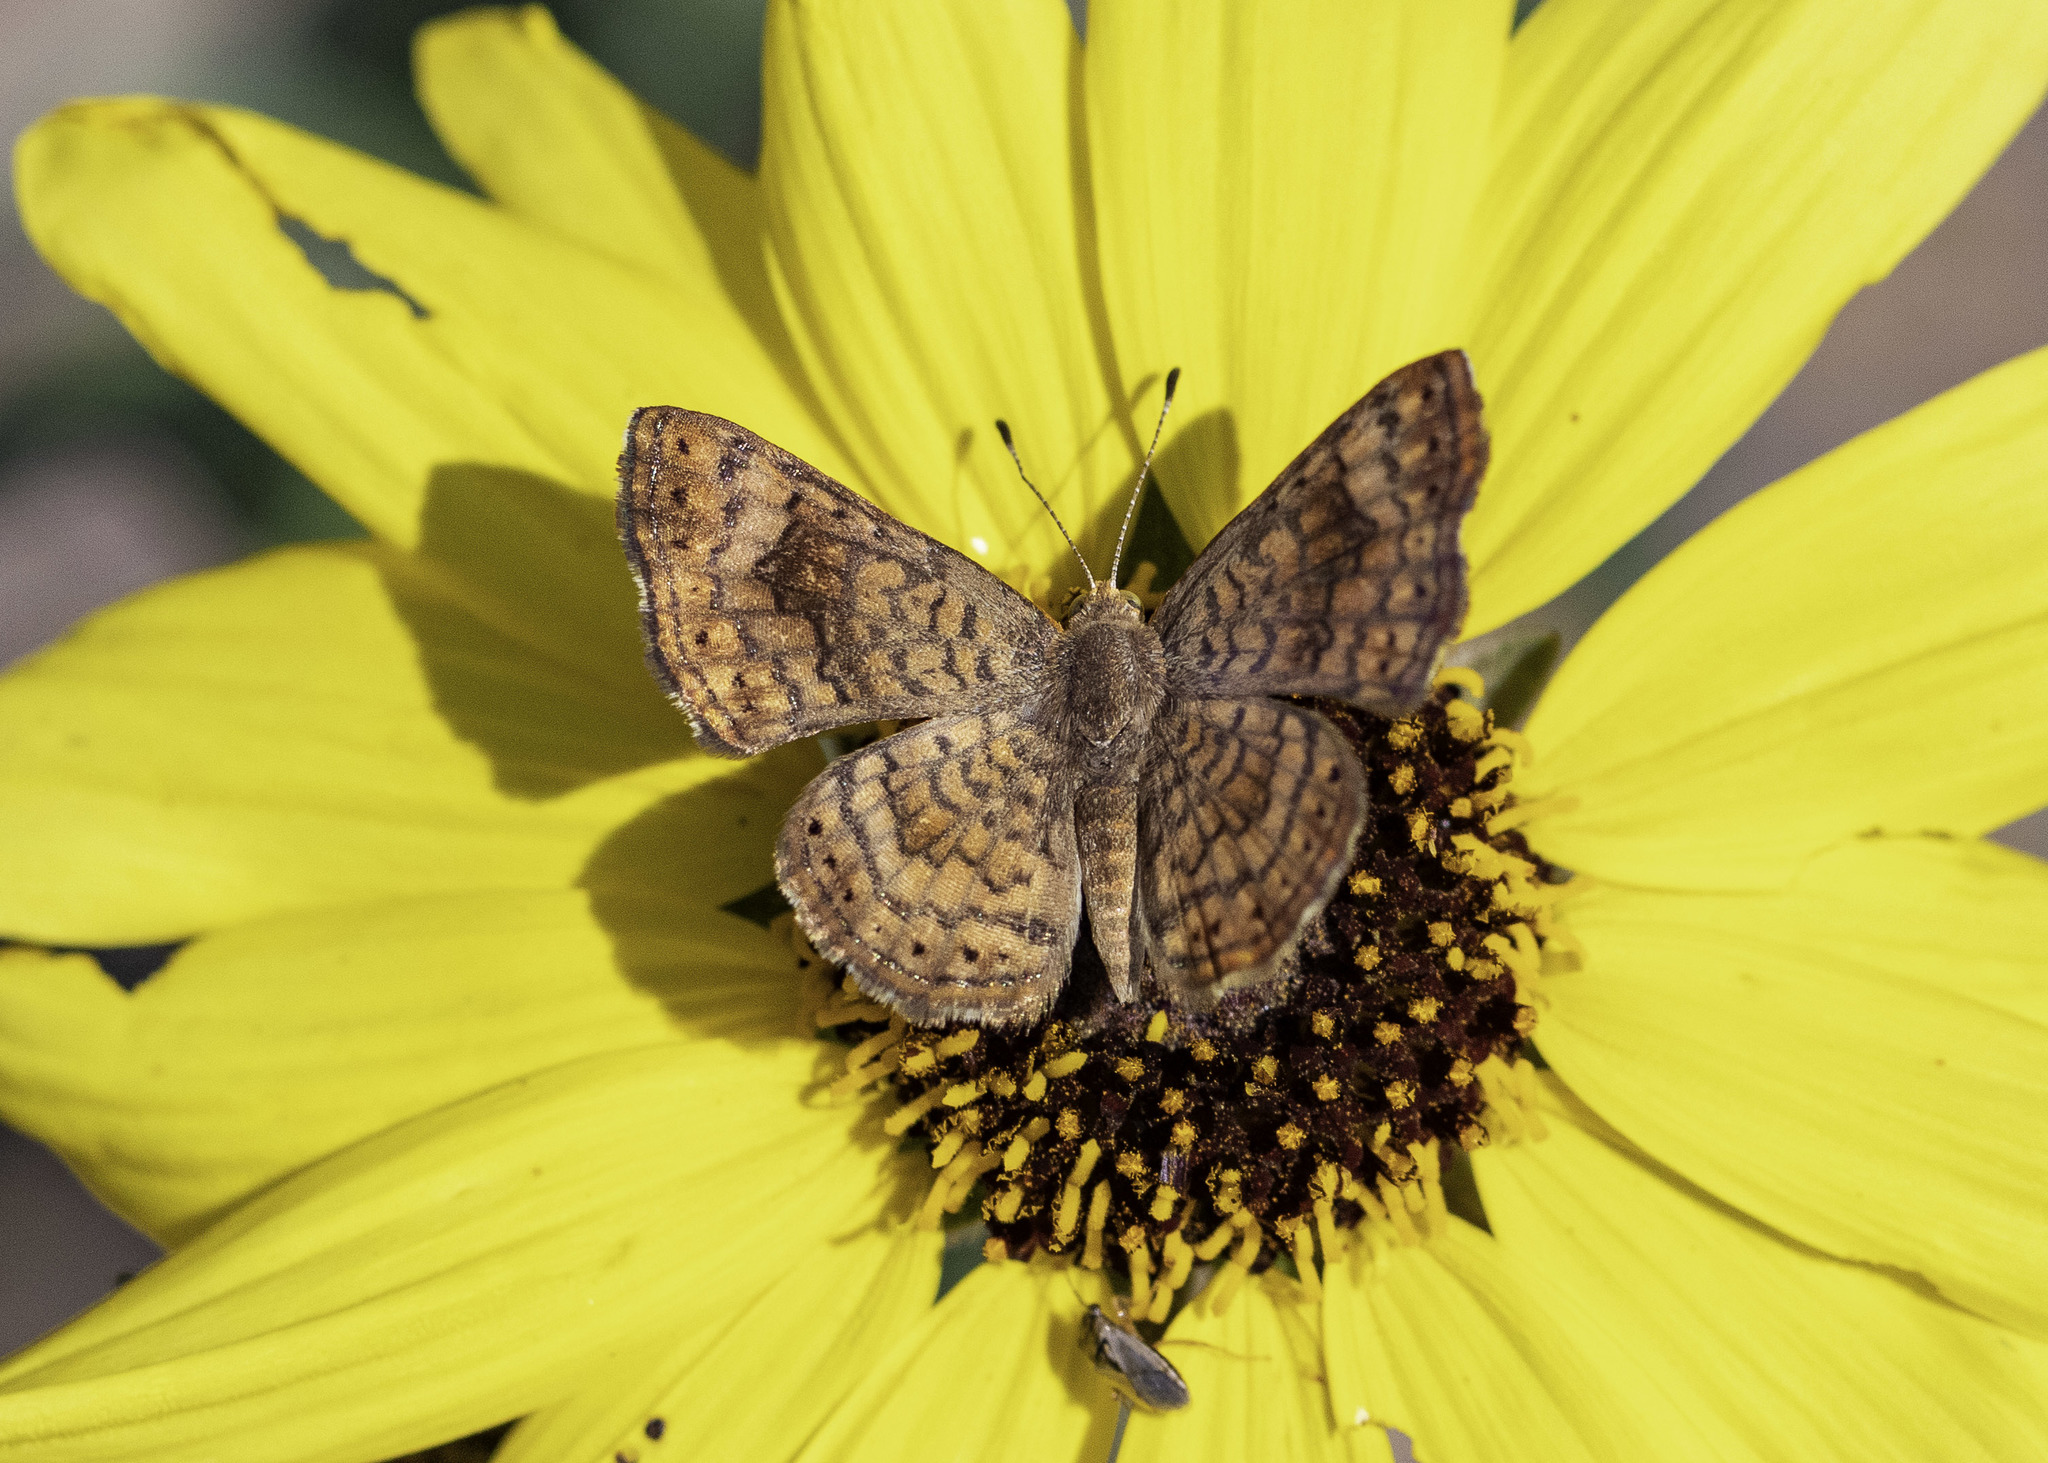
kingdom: Animalia
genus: Calephelis
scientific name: Calephelis nemesis
